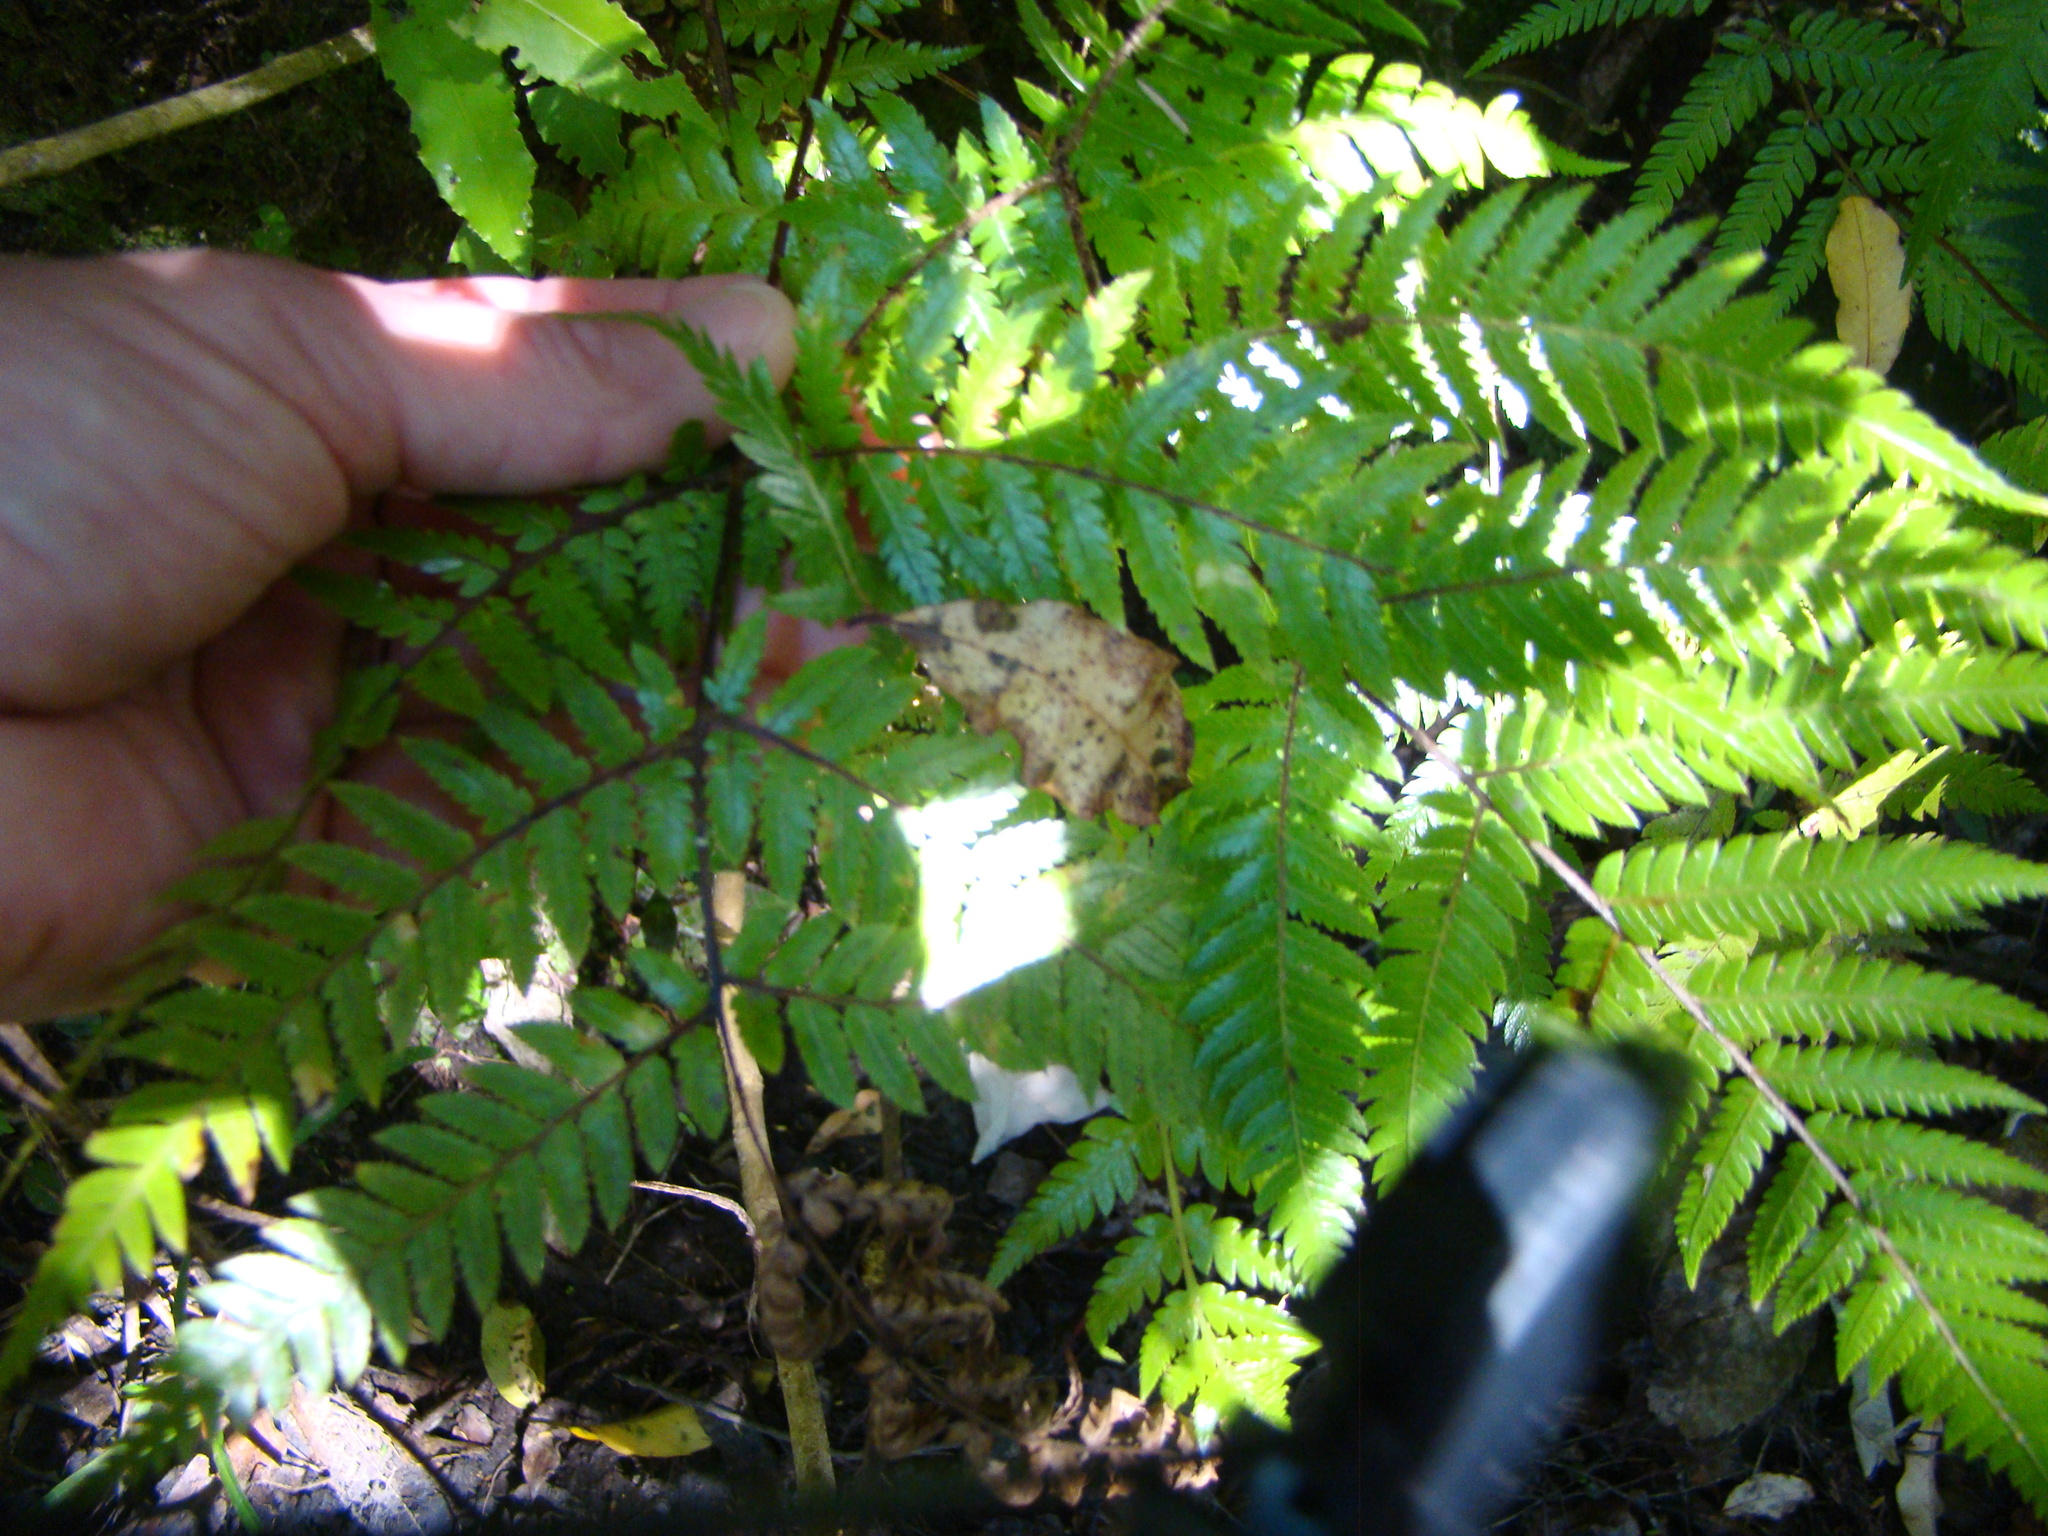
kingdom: Plantae
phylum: Tracheophyta
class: Polypodiopsida
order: Cyatheales
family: Cyatheaceae
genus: Alsophila
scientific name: Alsophila smithii
